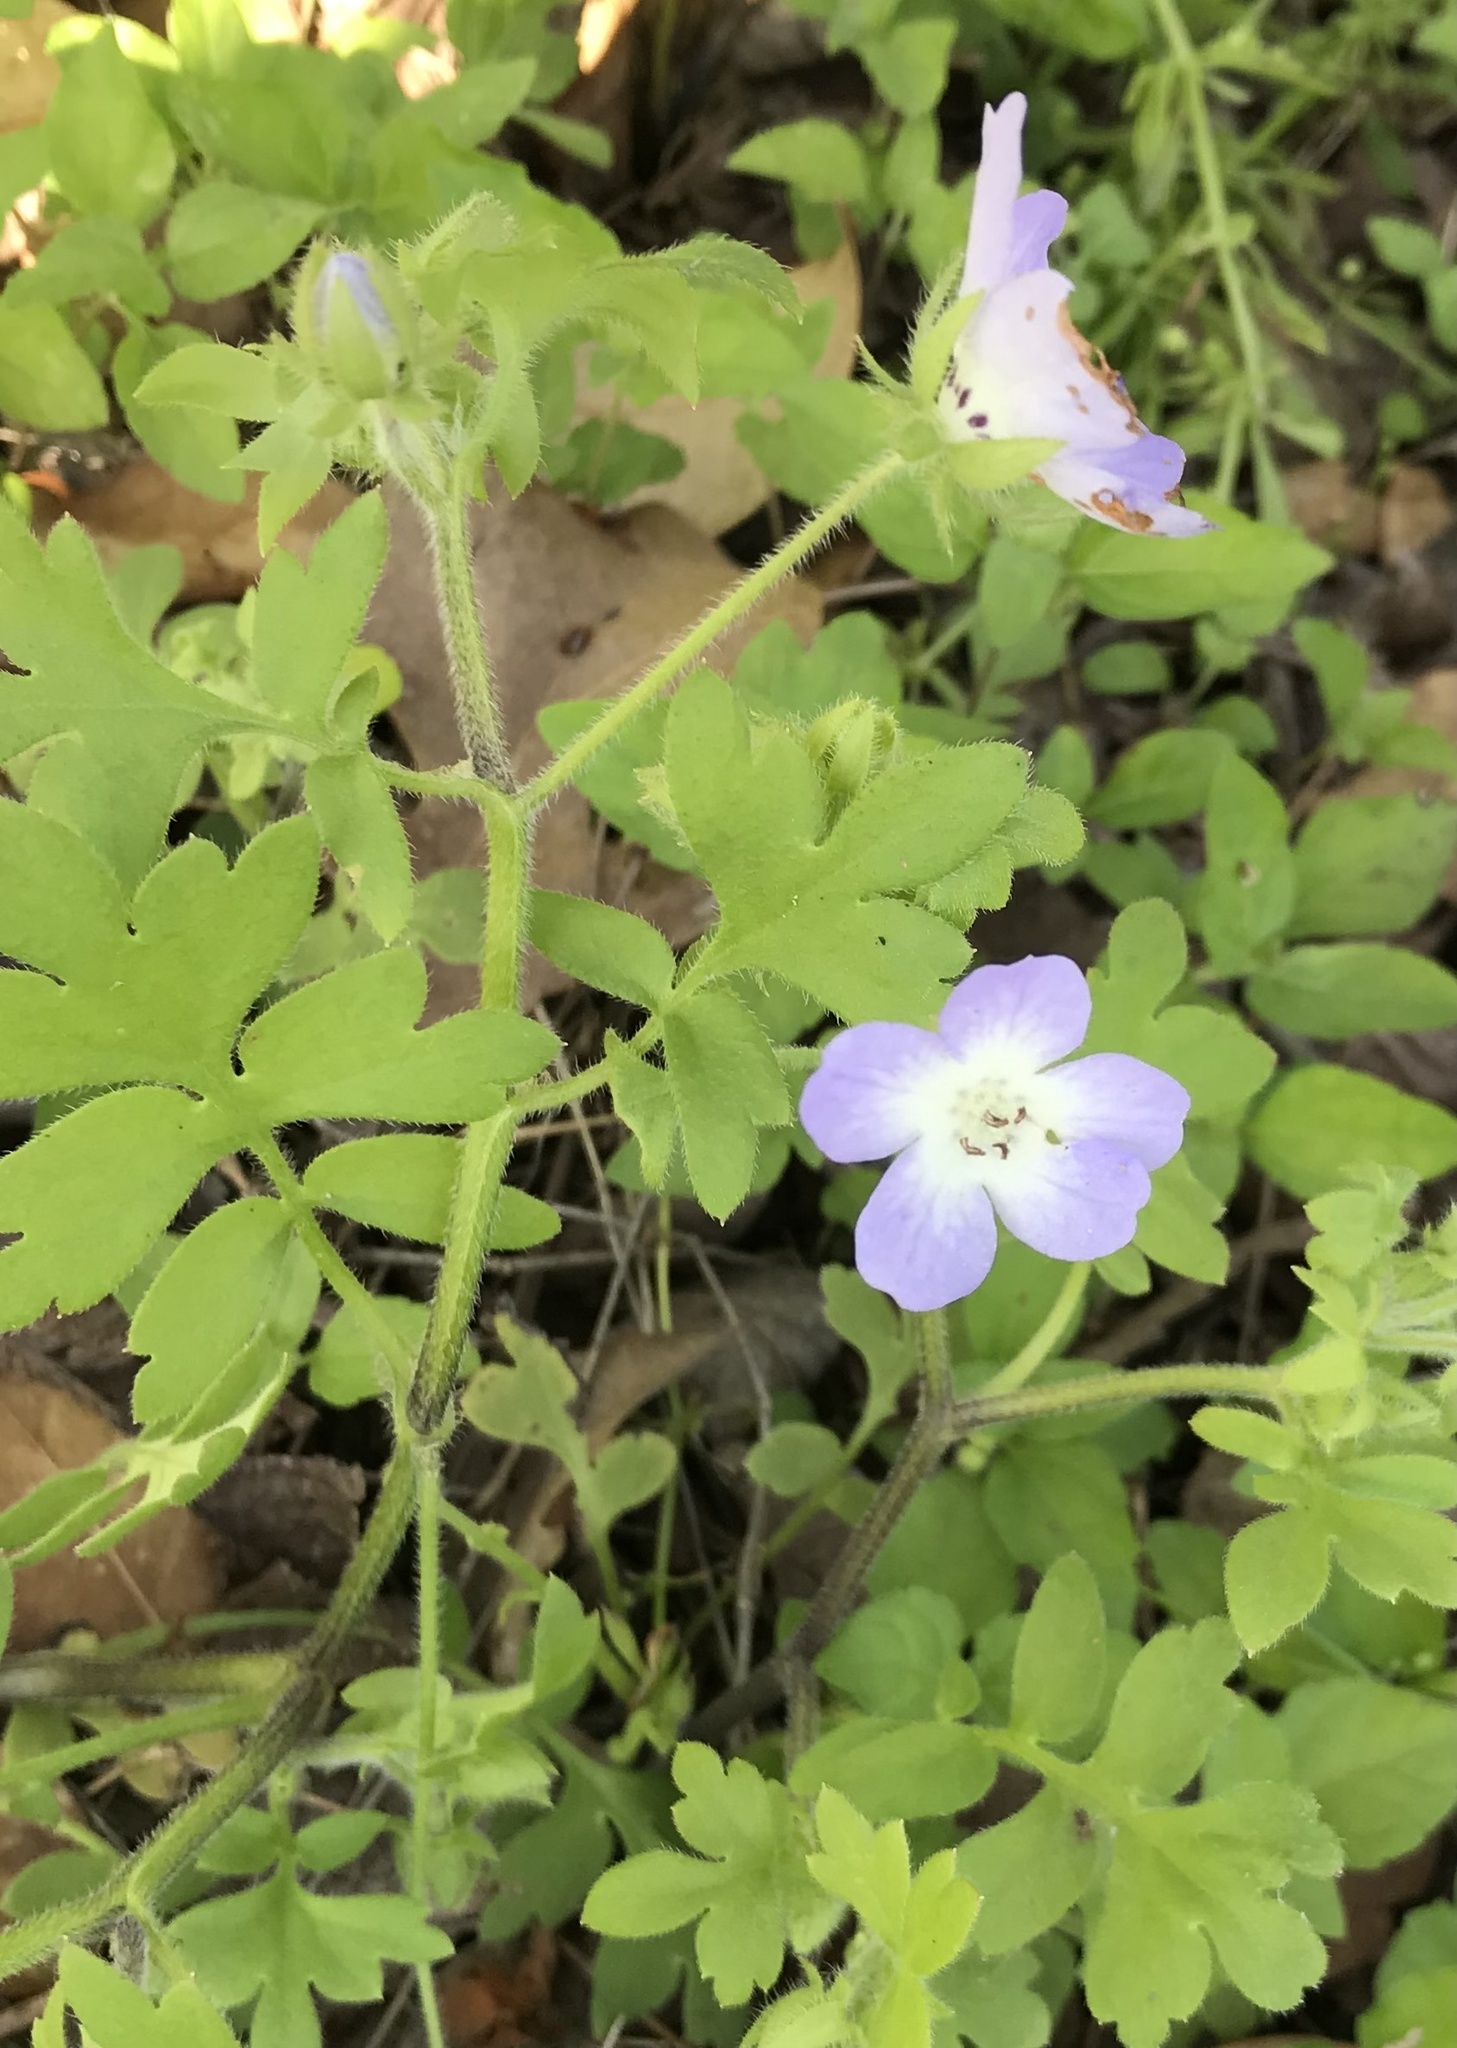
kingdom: Plantae
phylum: Tracheophyta
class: Magnoliopsida
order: Boraginales
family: Hydrophyllaceae
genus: Nemophila
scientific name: Nemophila phacelioides
